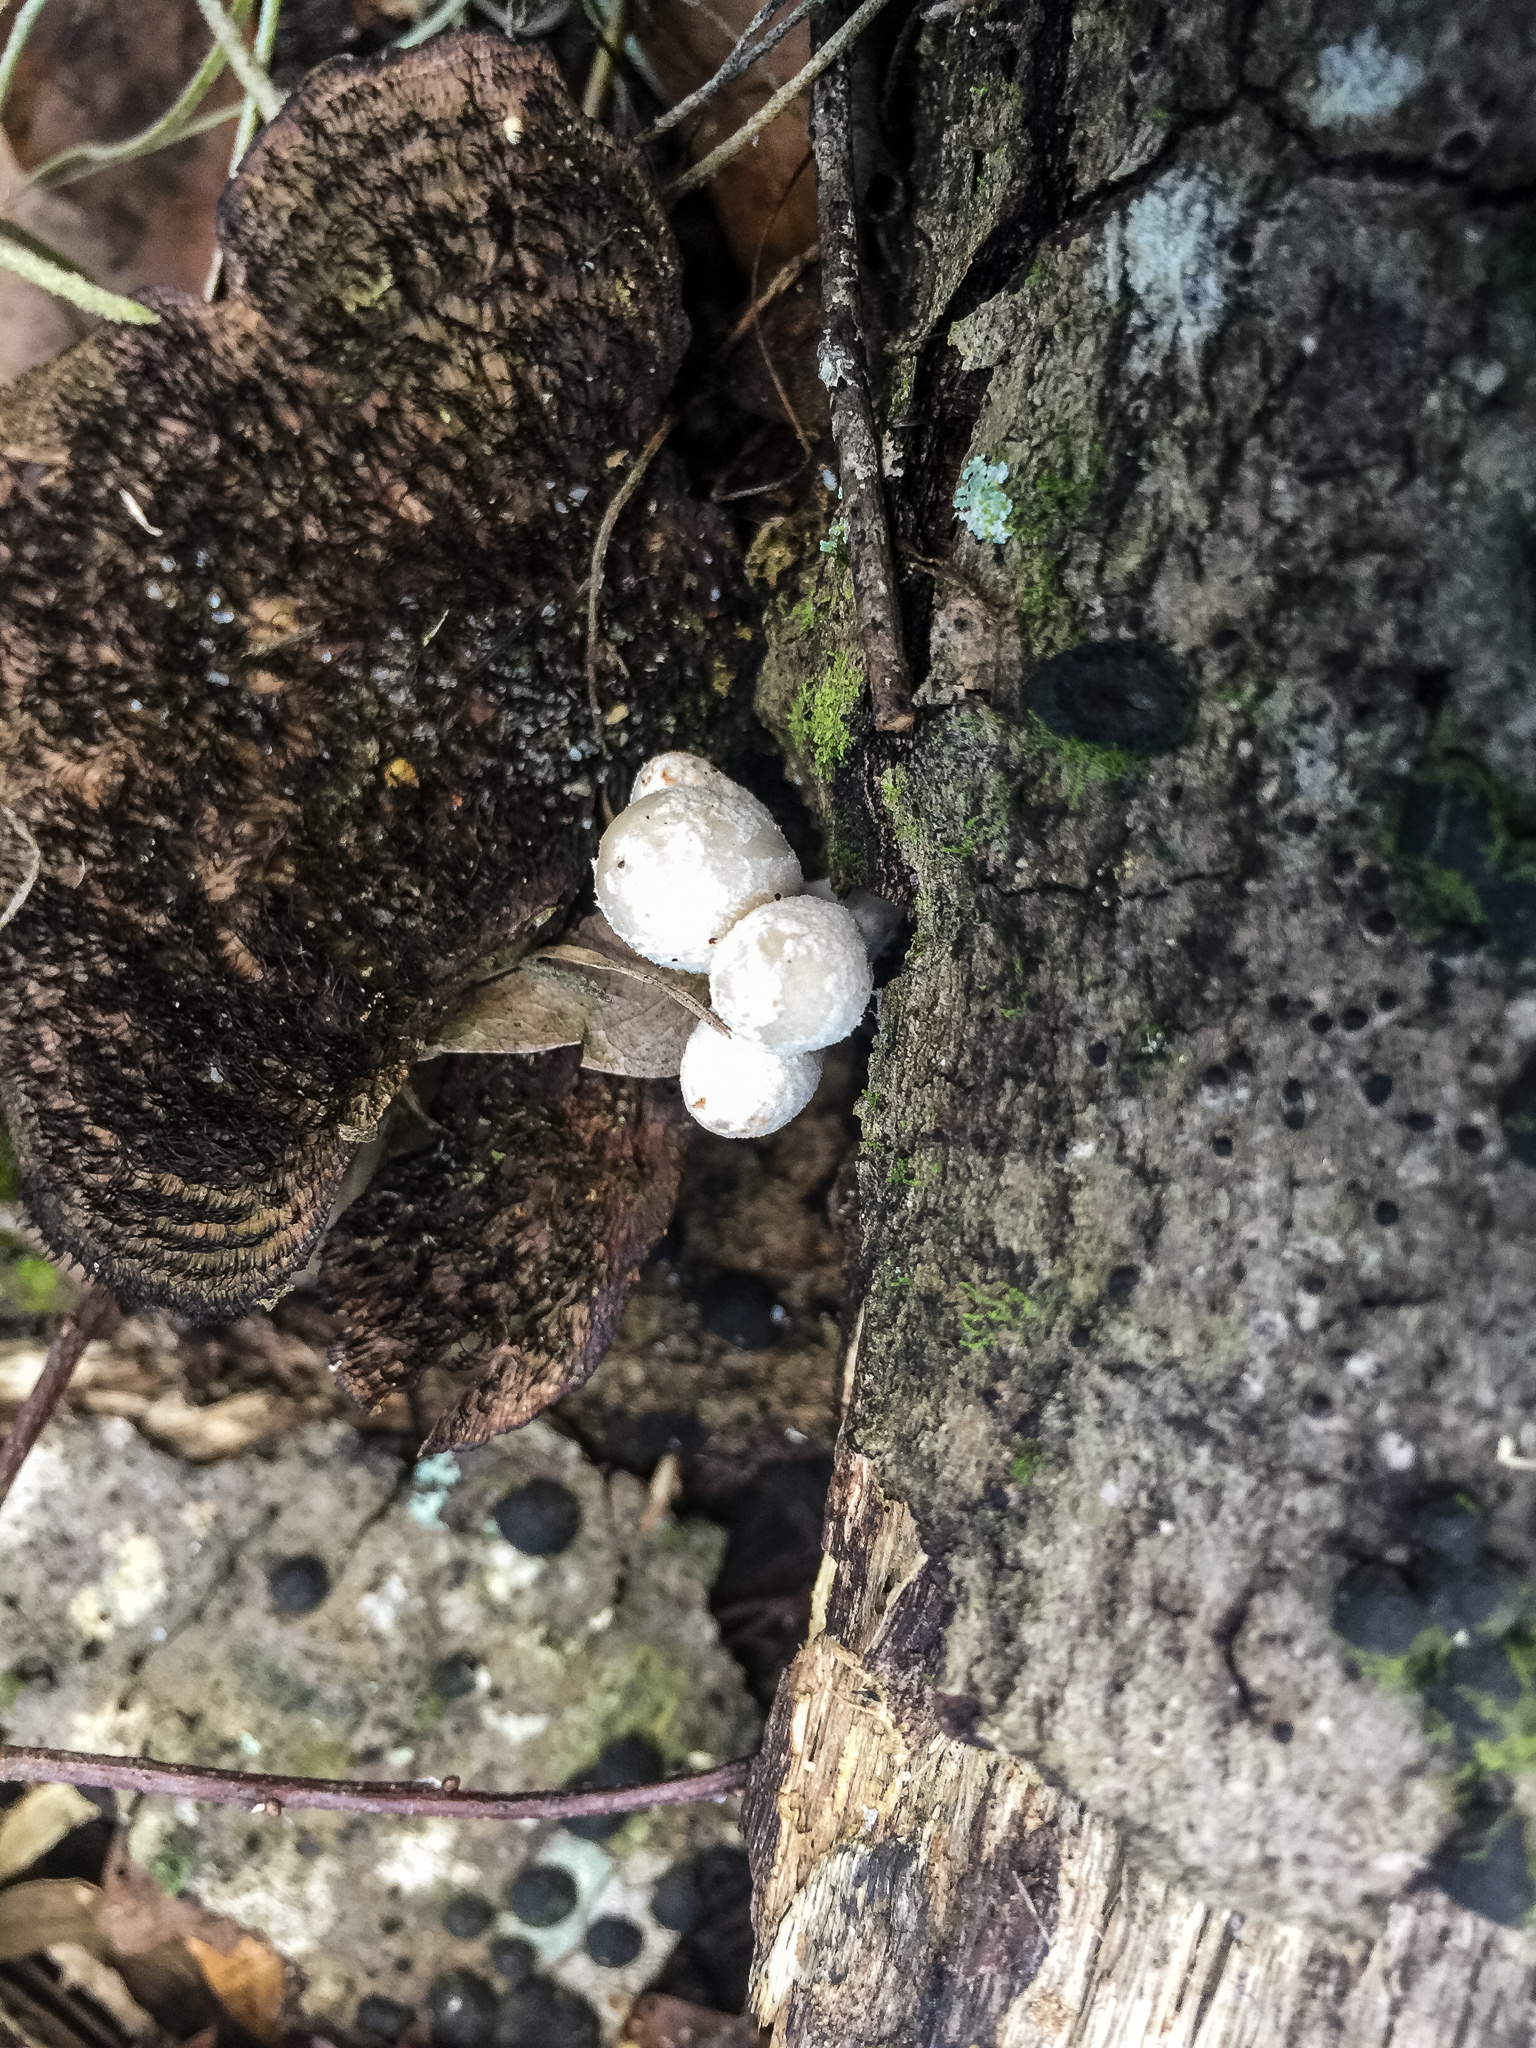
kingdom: Fungi
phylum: Basidiomycota
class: Agaricomycetes
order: Agaricales
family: Psathyrellaceae
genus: Coprinopsis
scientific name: Coprinopsis variegata
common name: Scaly ink cap
